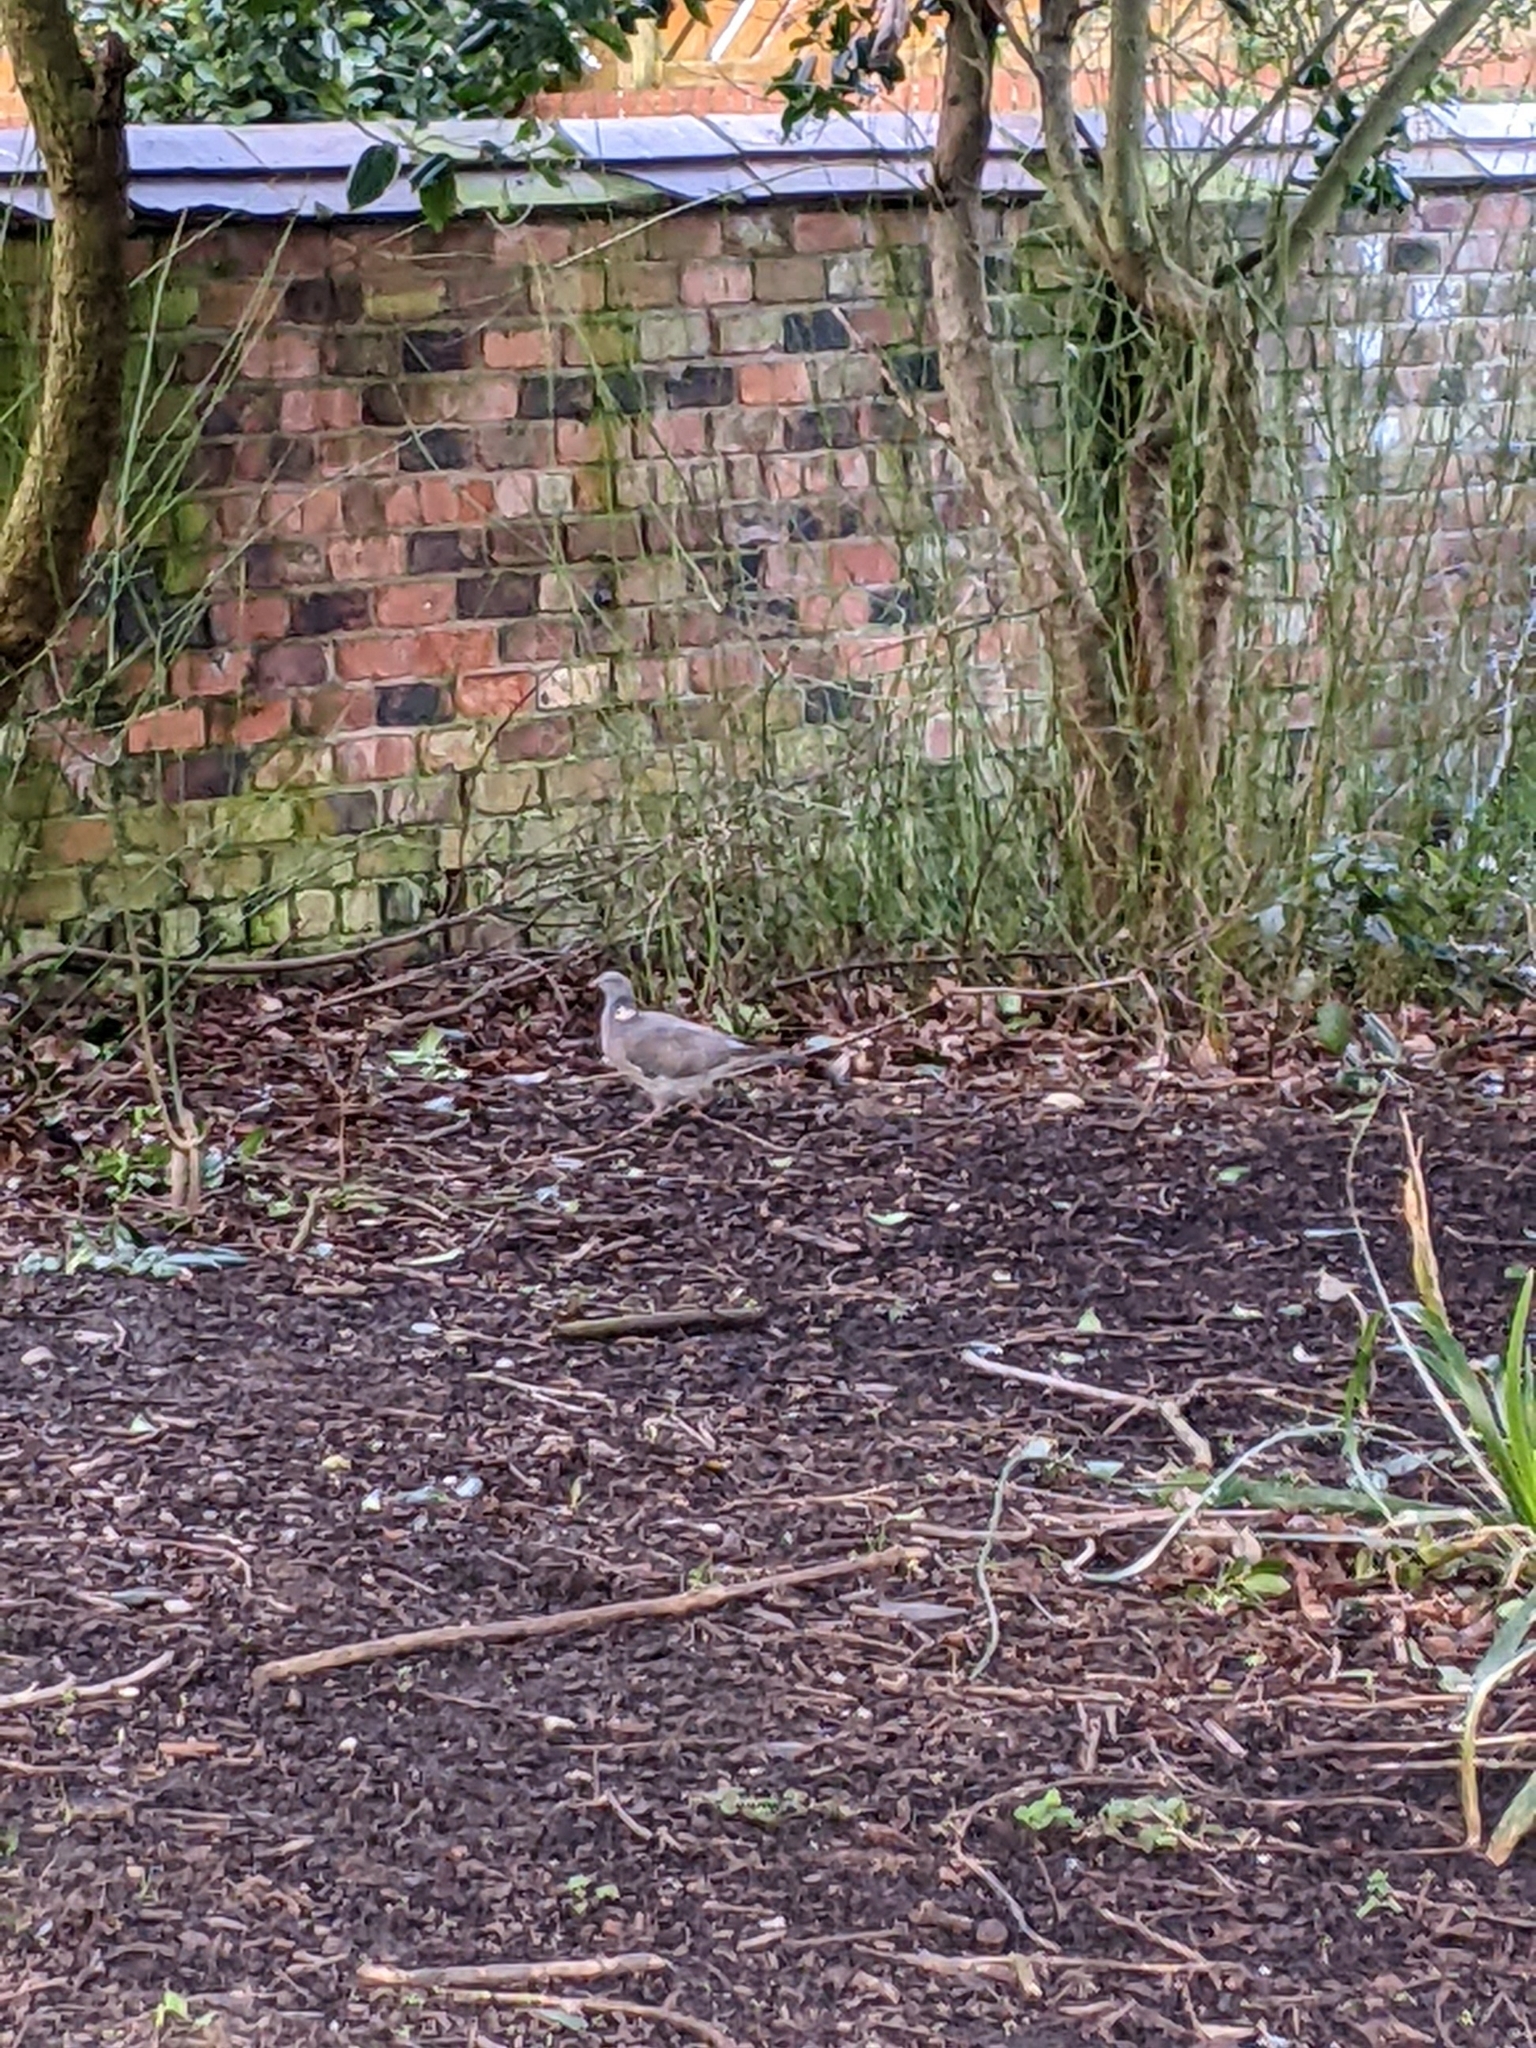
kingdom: Animalia
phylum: Chordata
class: Aves
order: Columbiformes
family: Columbidae
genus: Columba
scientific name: Columba palumbus
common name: Common wood pigeon
